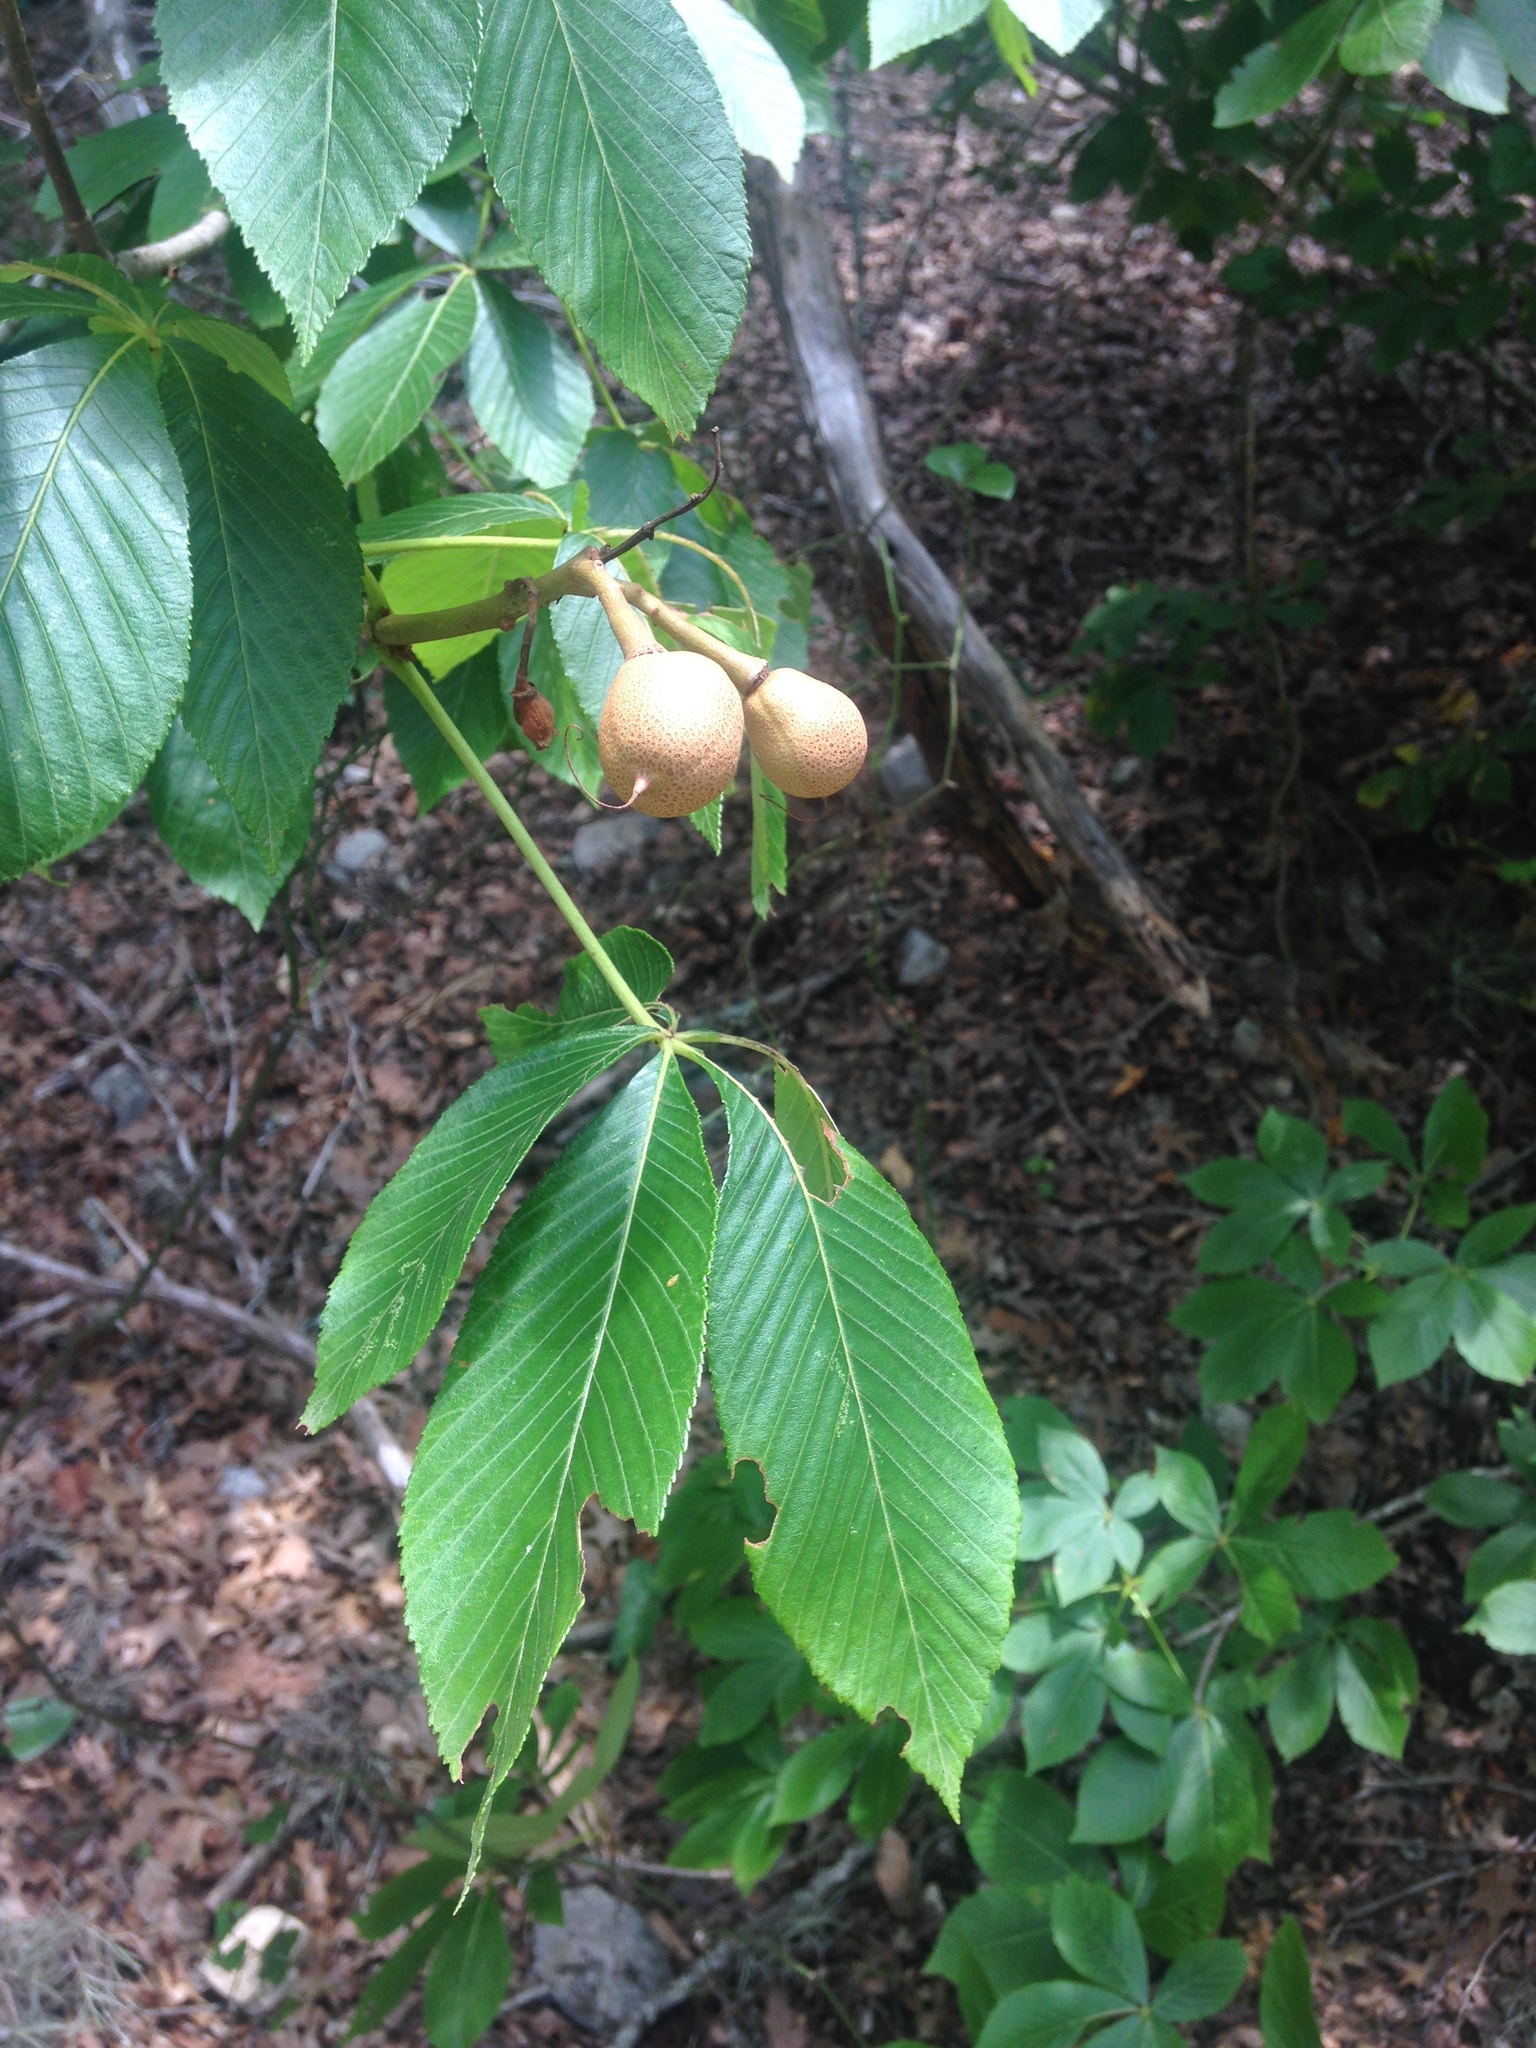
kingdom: Plantae
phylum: Tracheophyta
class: Magnoliopsida
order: Sapindales
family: Sapindaceae
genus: Aesculus
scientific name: Aesculus pavia
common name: Red buckeye
